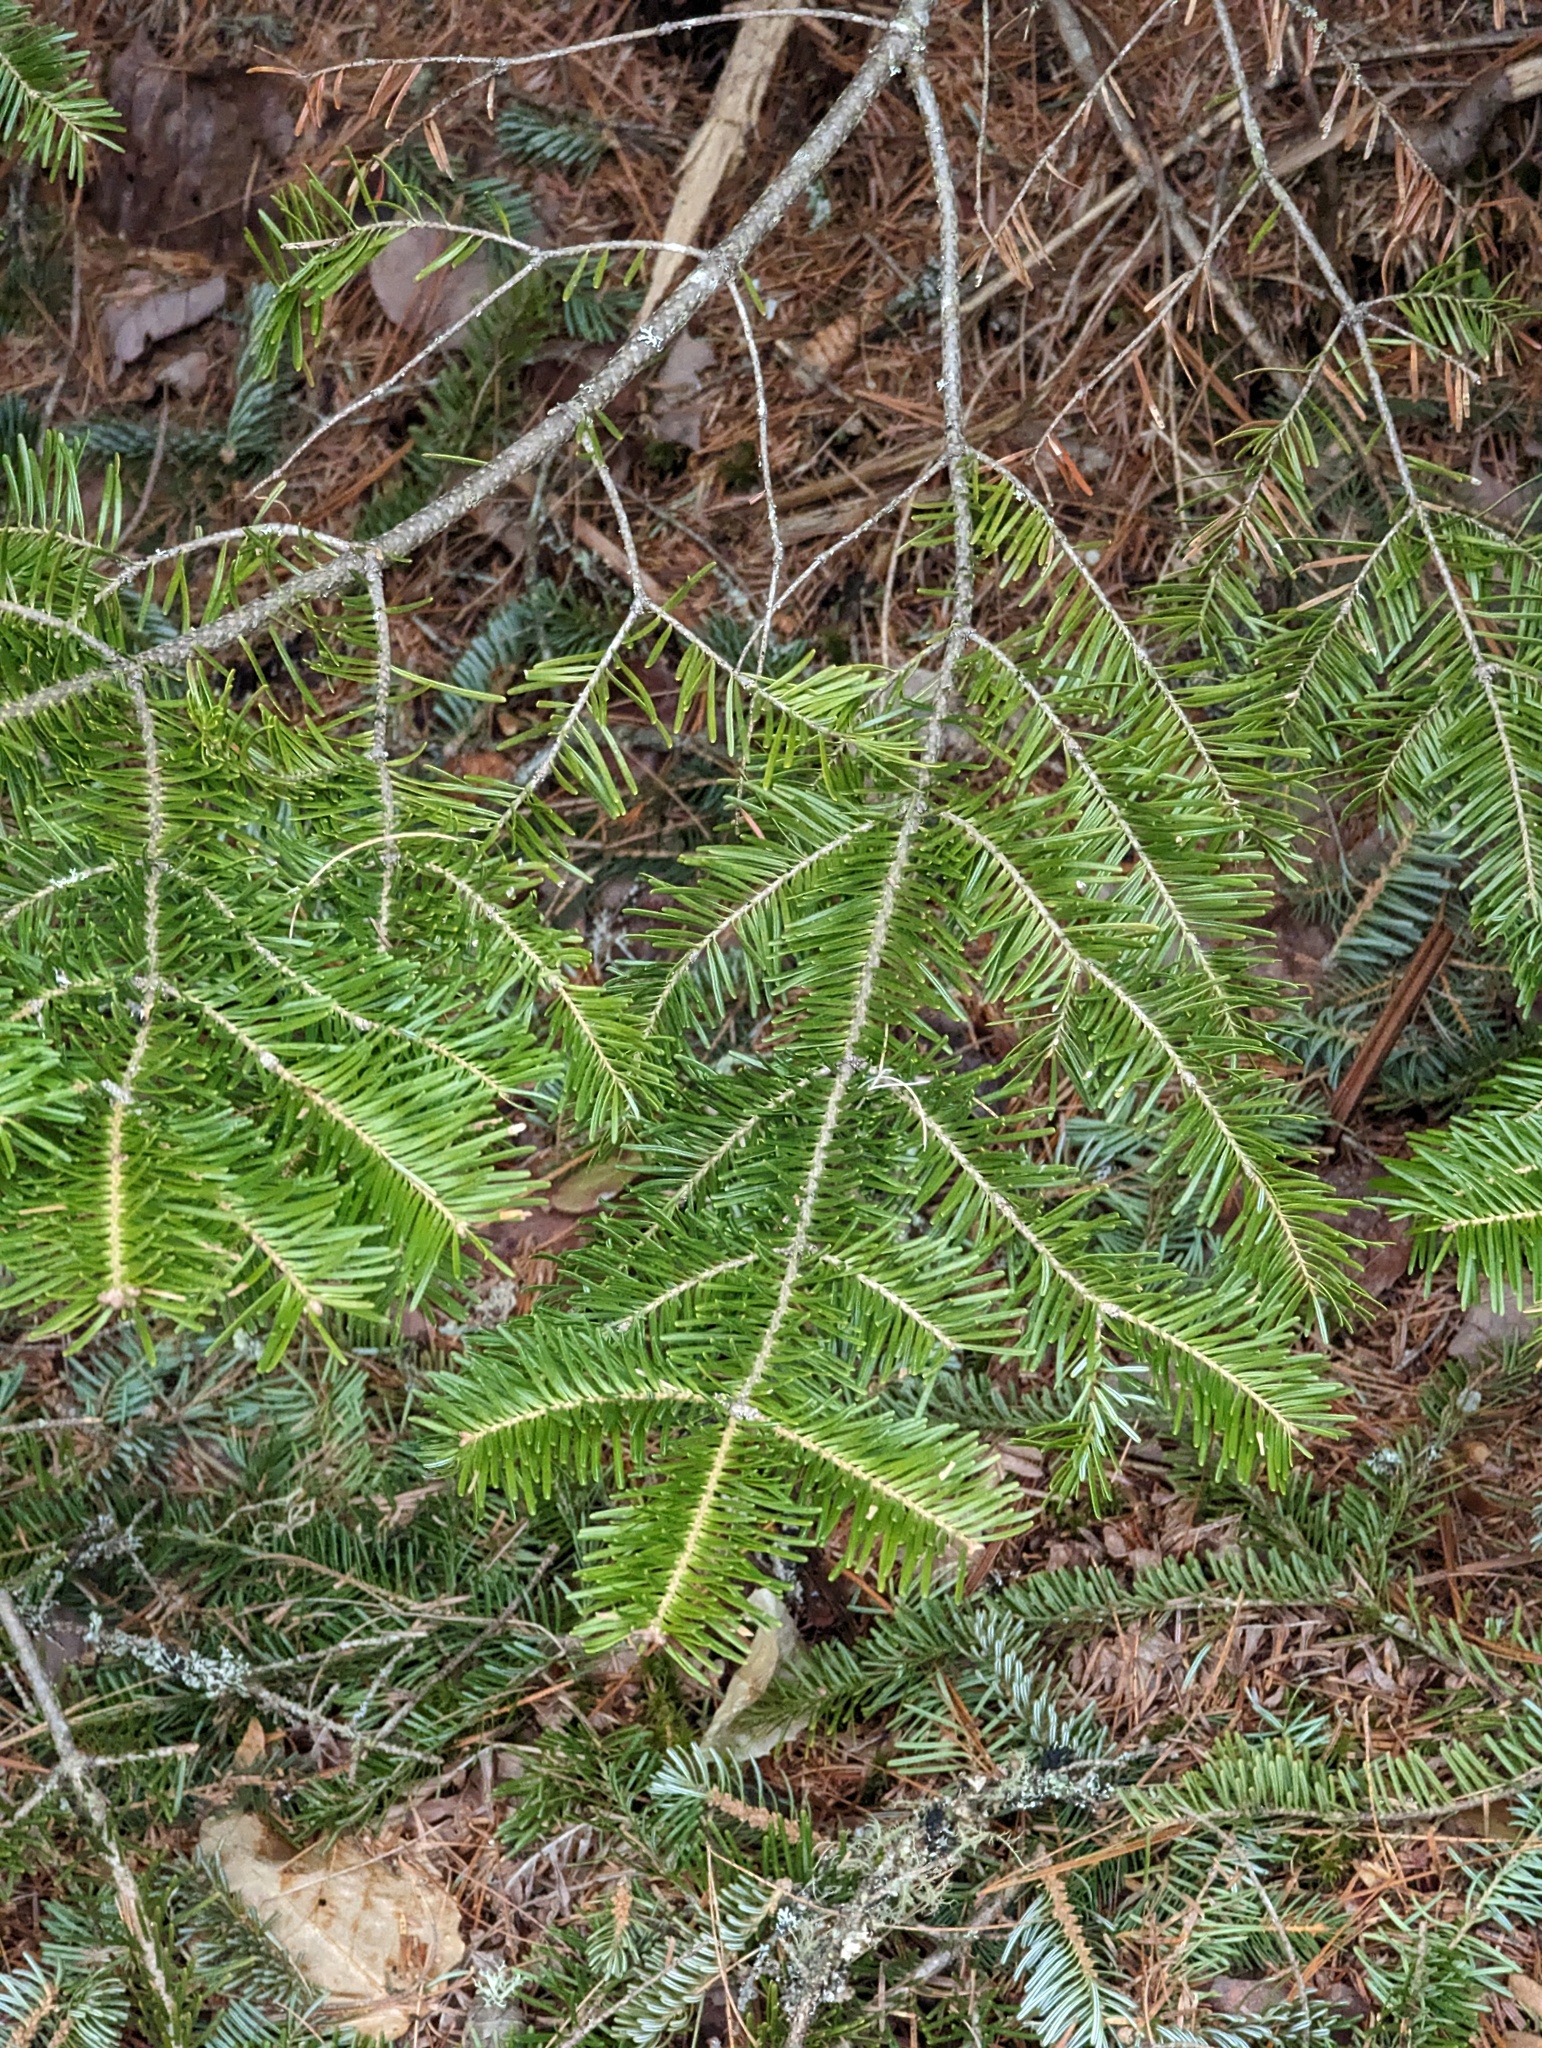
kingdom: Plantae
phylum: Tracheophyta
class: Pinopsida
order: Pinales
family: Pinaceae
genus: Abies
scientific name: Abies balsamea
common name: Balsam fir
